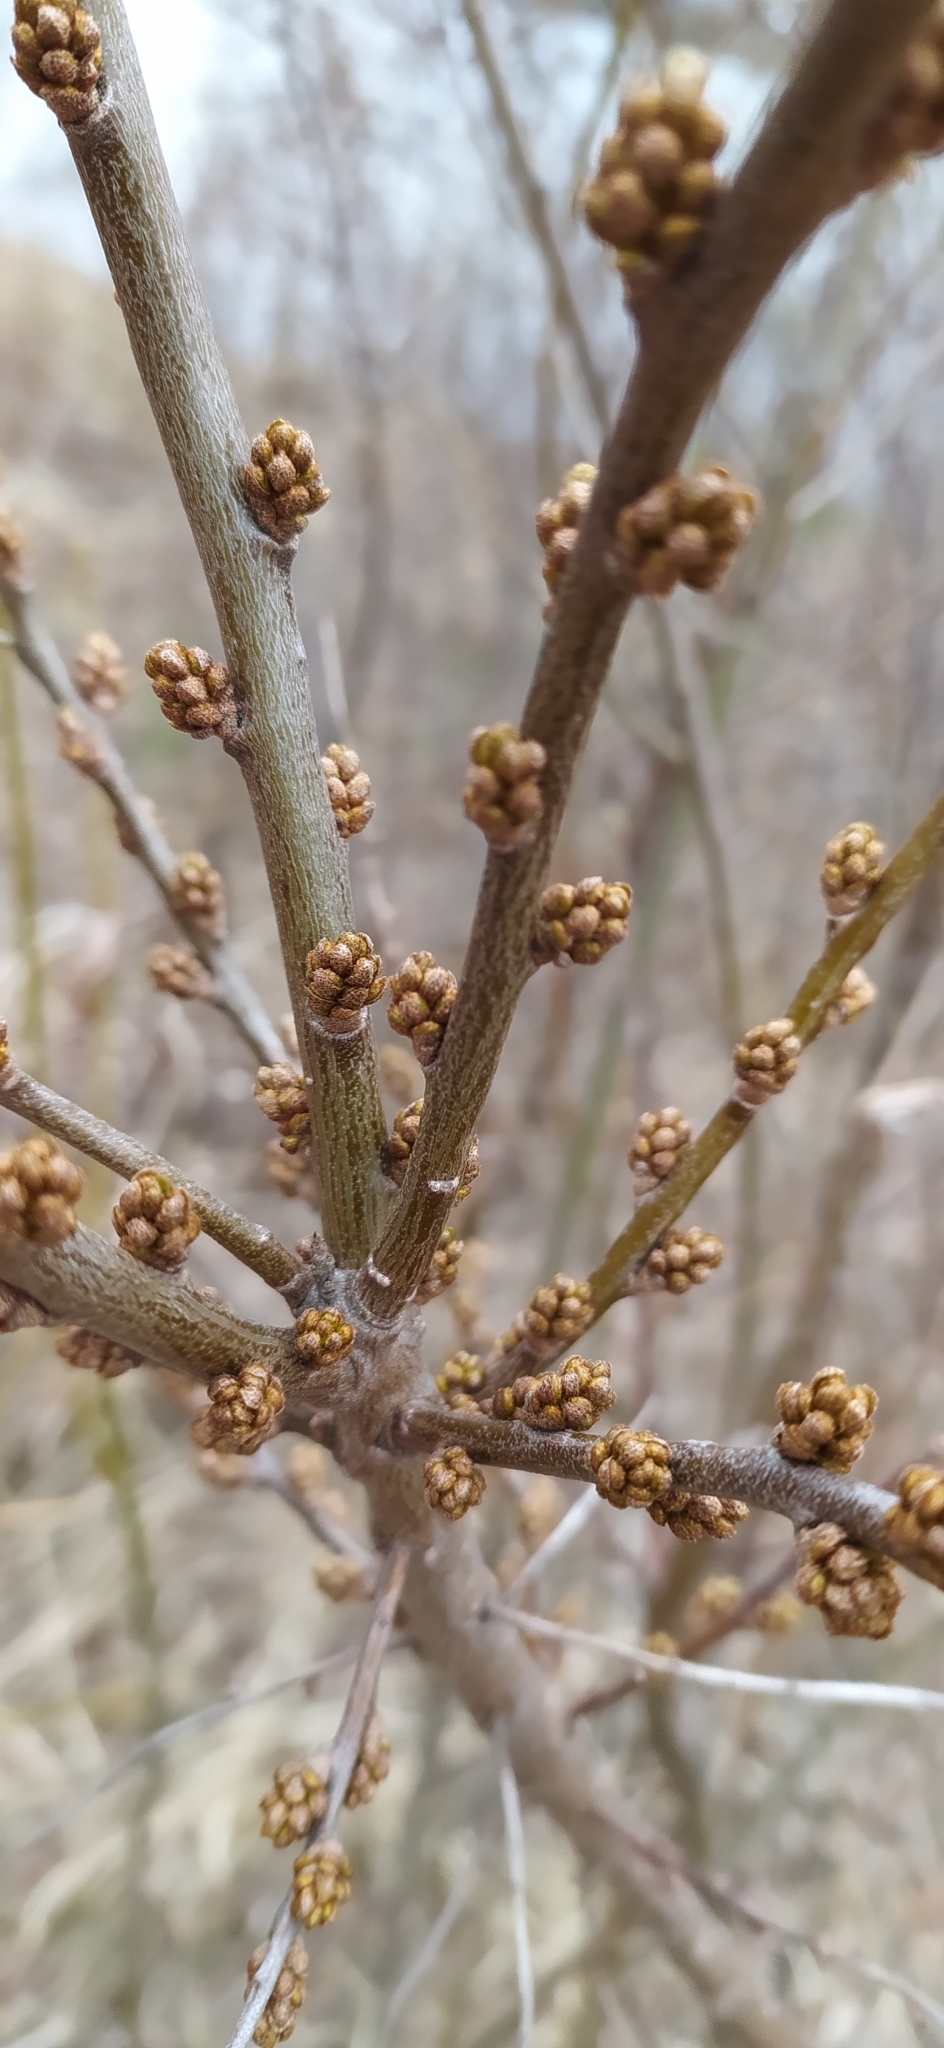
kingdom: Plantae
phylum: Tracheophyta
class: Magnoliopsida
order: Rosales
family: Elaeagnaceae
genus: Hippophae
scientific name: Hippophae rhamnoides
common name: Sea-buckthorn
